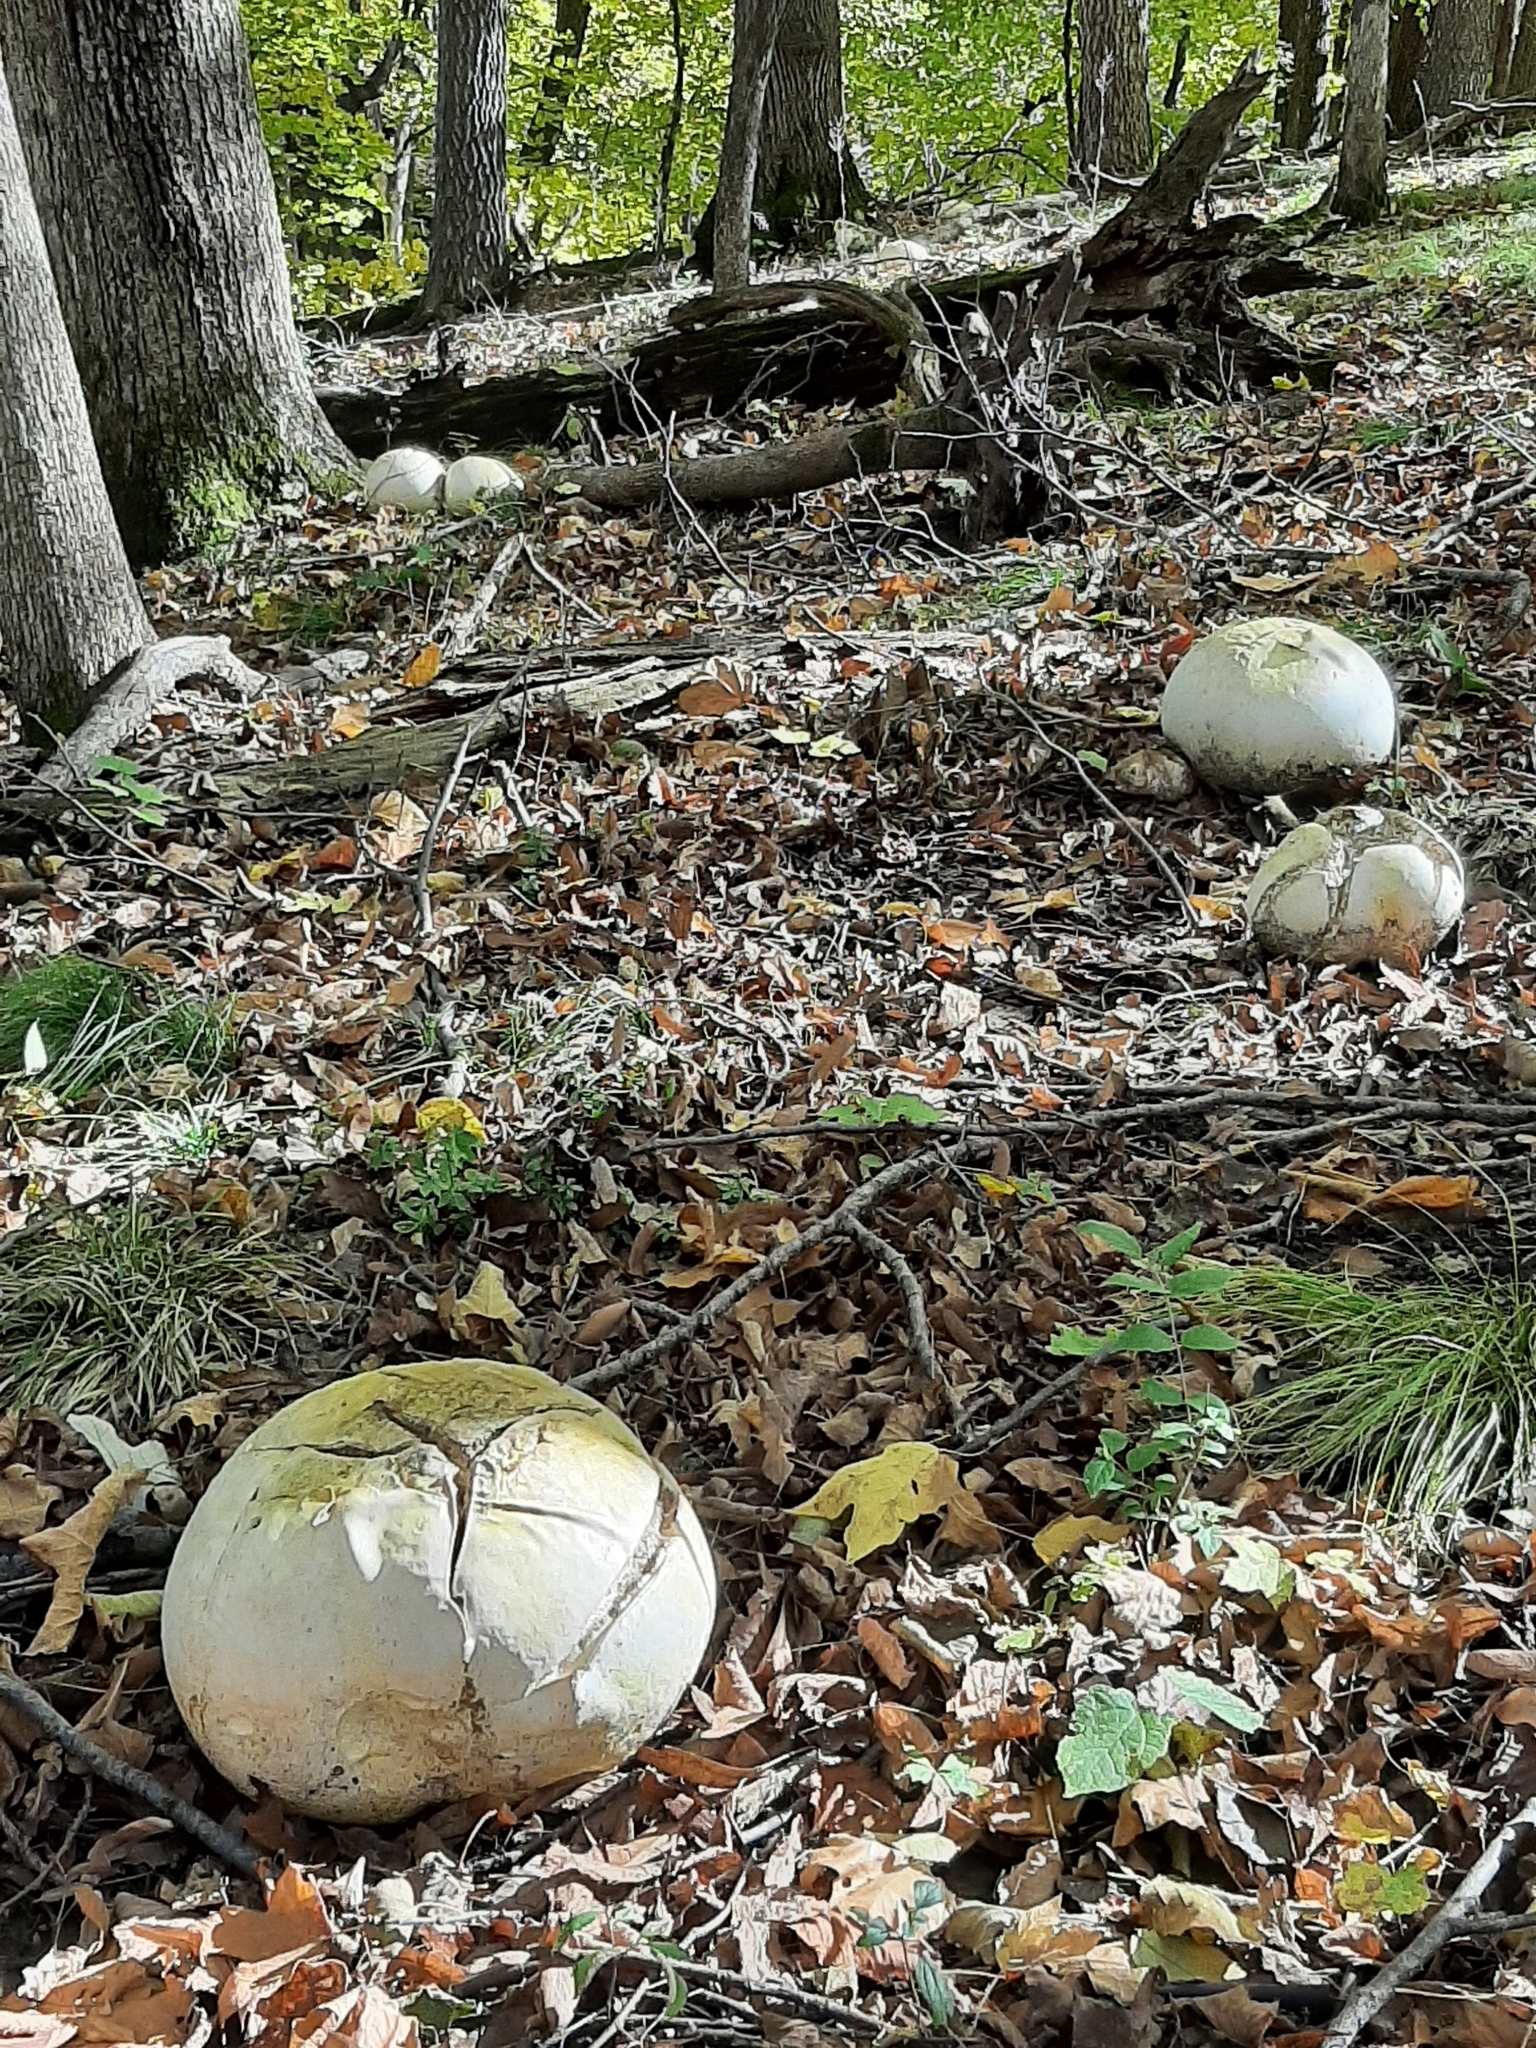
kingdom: Fungi
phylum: Basidiomycota
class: Agaricomycetes
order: Agaricales
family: Lycoperdaceae
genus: Calvatia
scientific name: Calvatia gigantea
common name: Giant puffball
